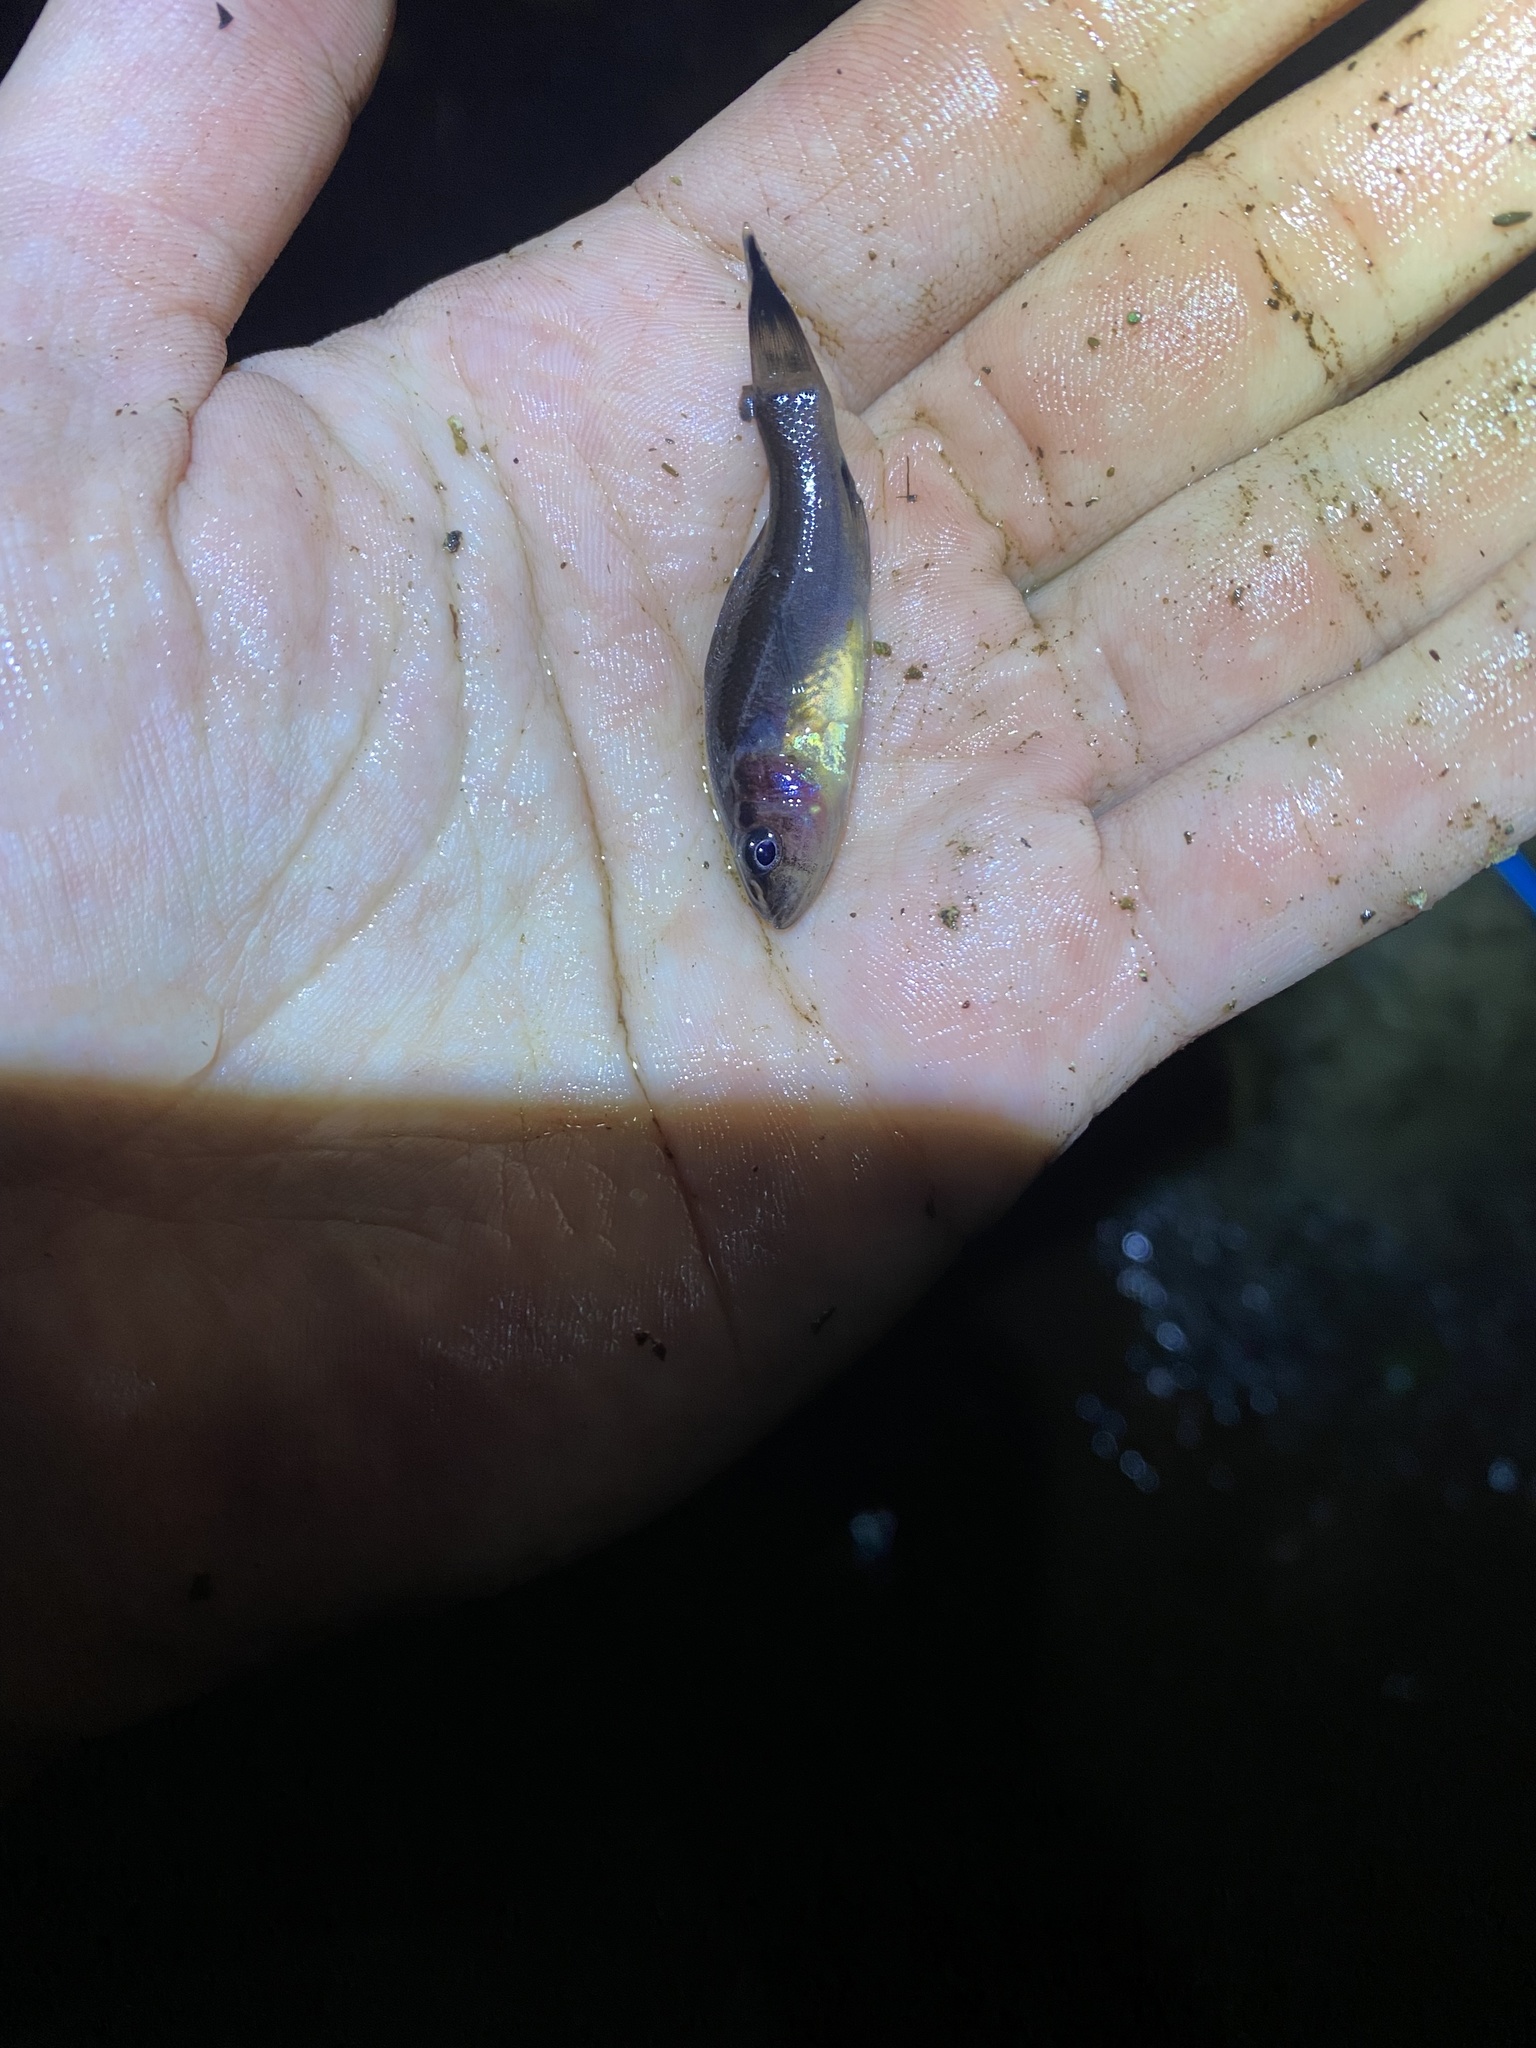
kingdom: Animalia
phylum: Chordata
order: Percopsiformes
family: Aphredoderidae
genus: Aphredoderus
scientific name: Aphredoderus
